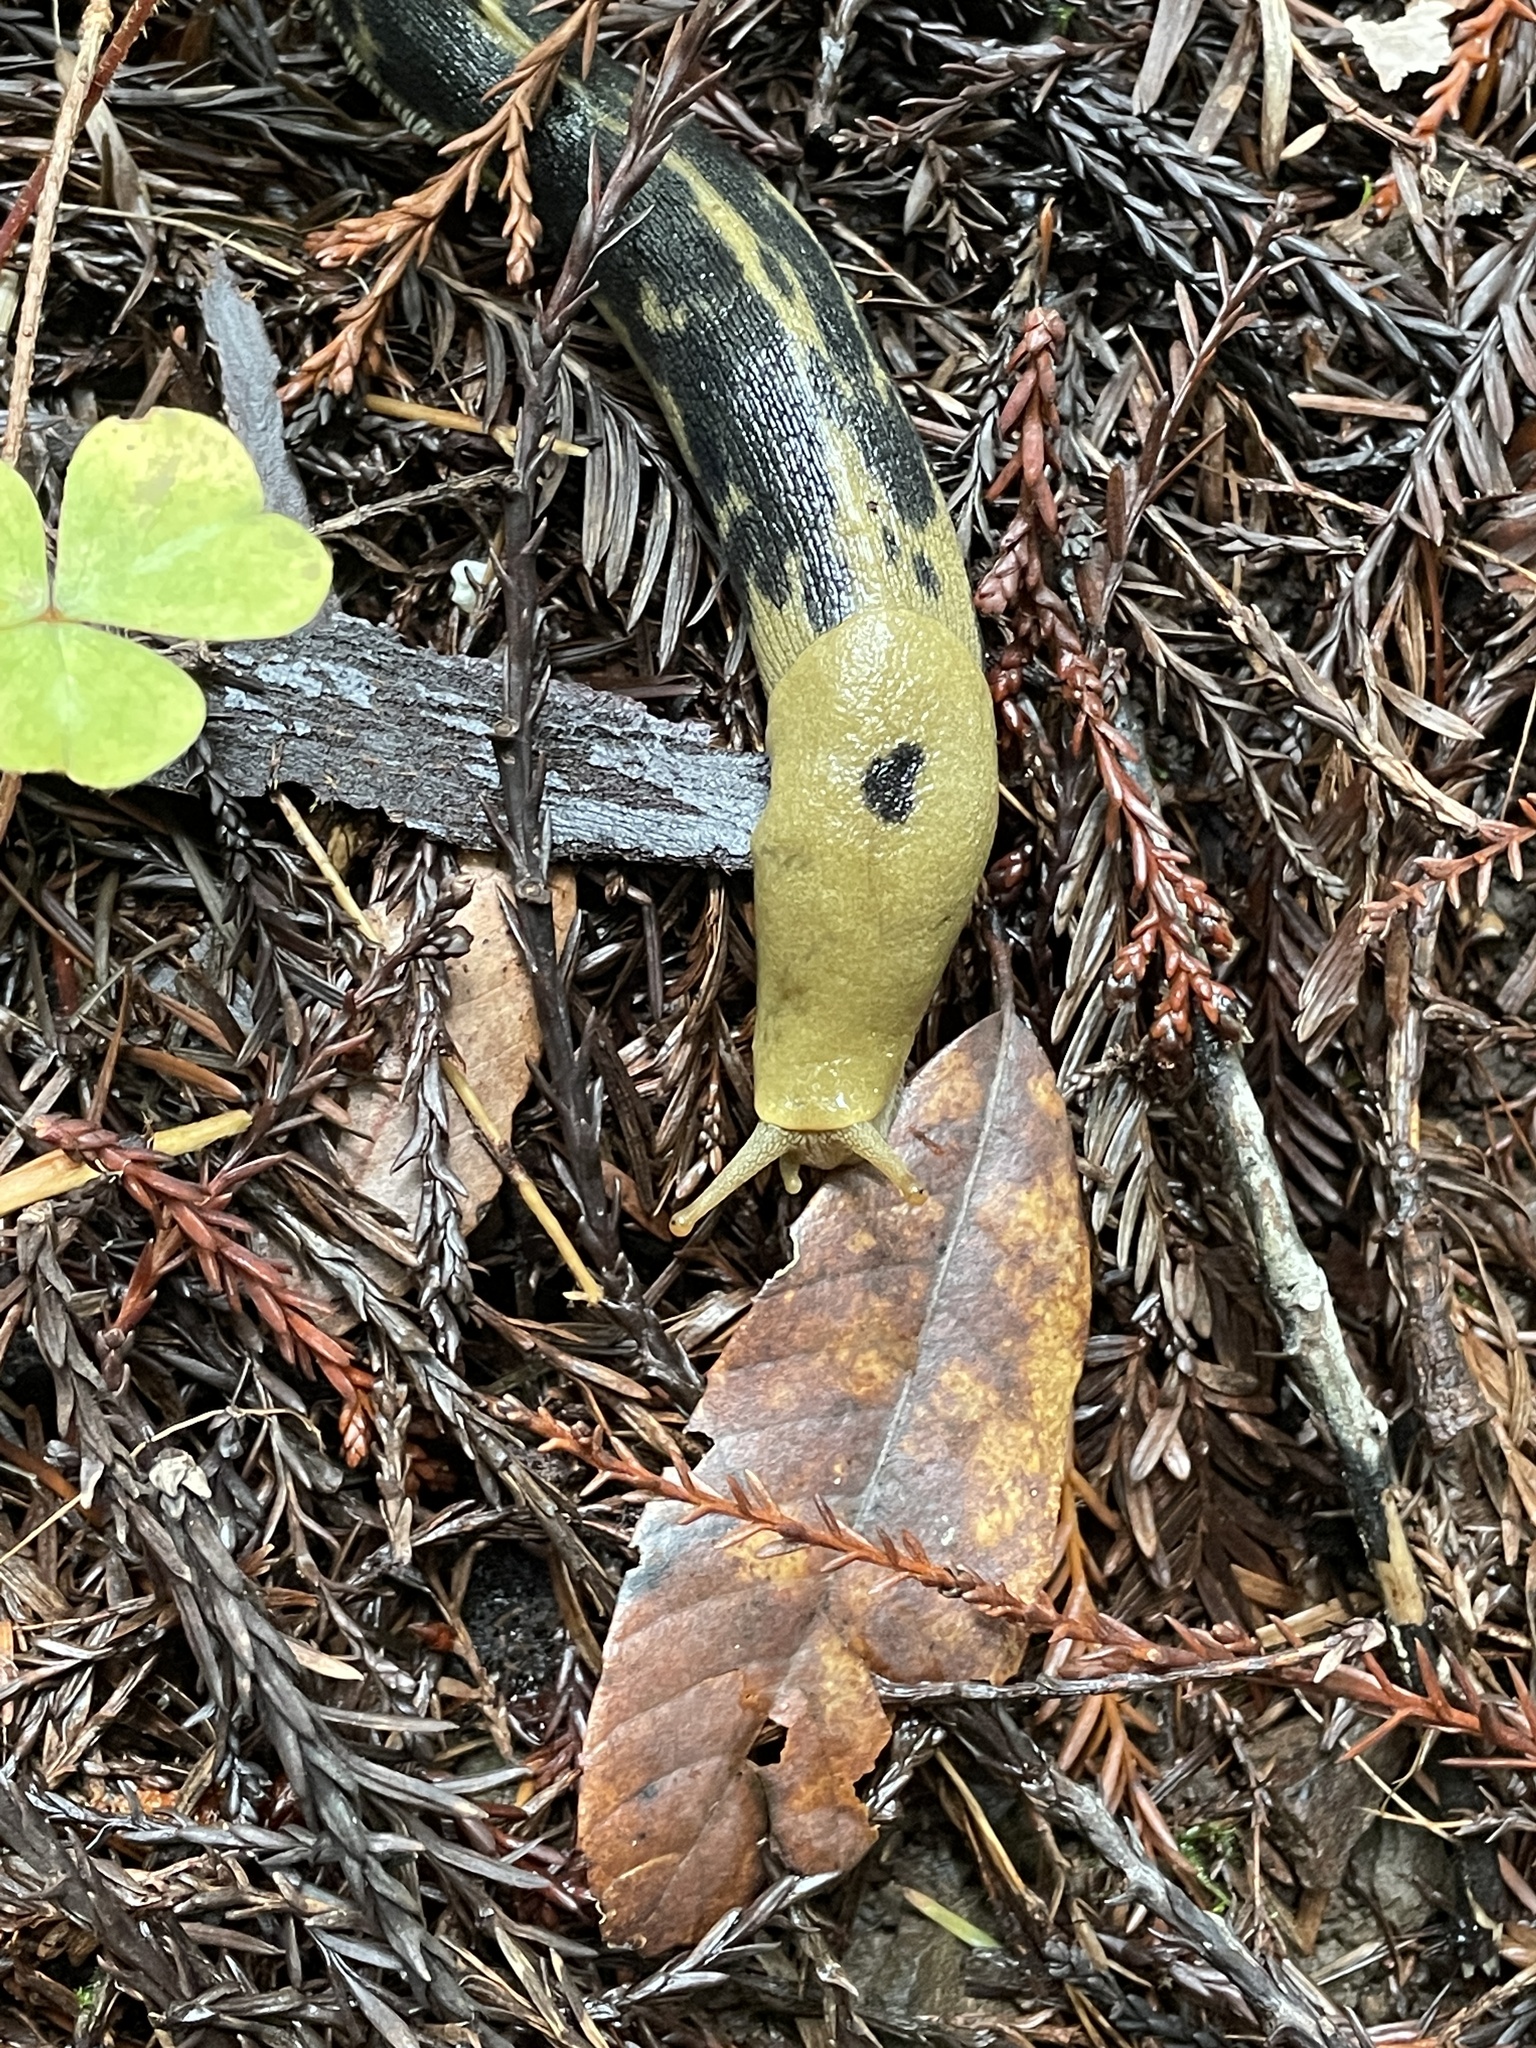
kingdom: Animalia
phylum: Mollusca
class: Gastropoda
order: Stylommatophora
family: Ariolimacidae
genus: Ariolimax
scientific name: Ariolimax buttoni
